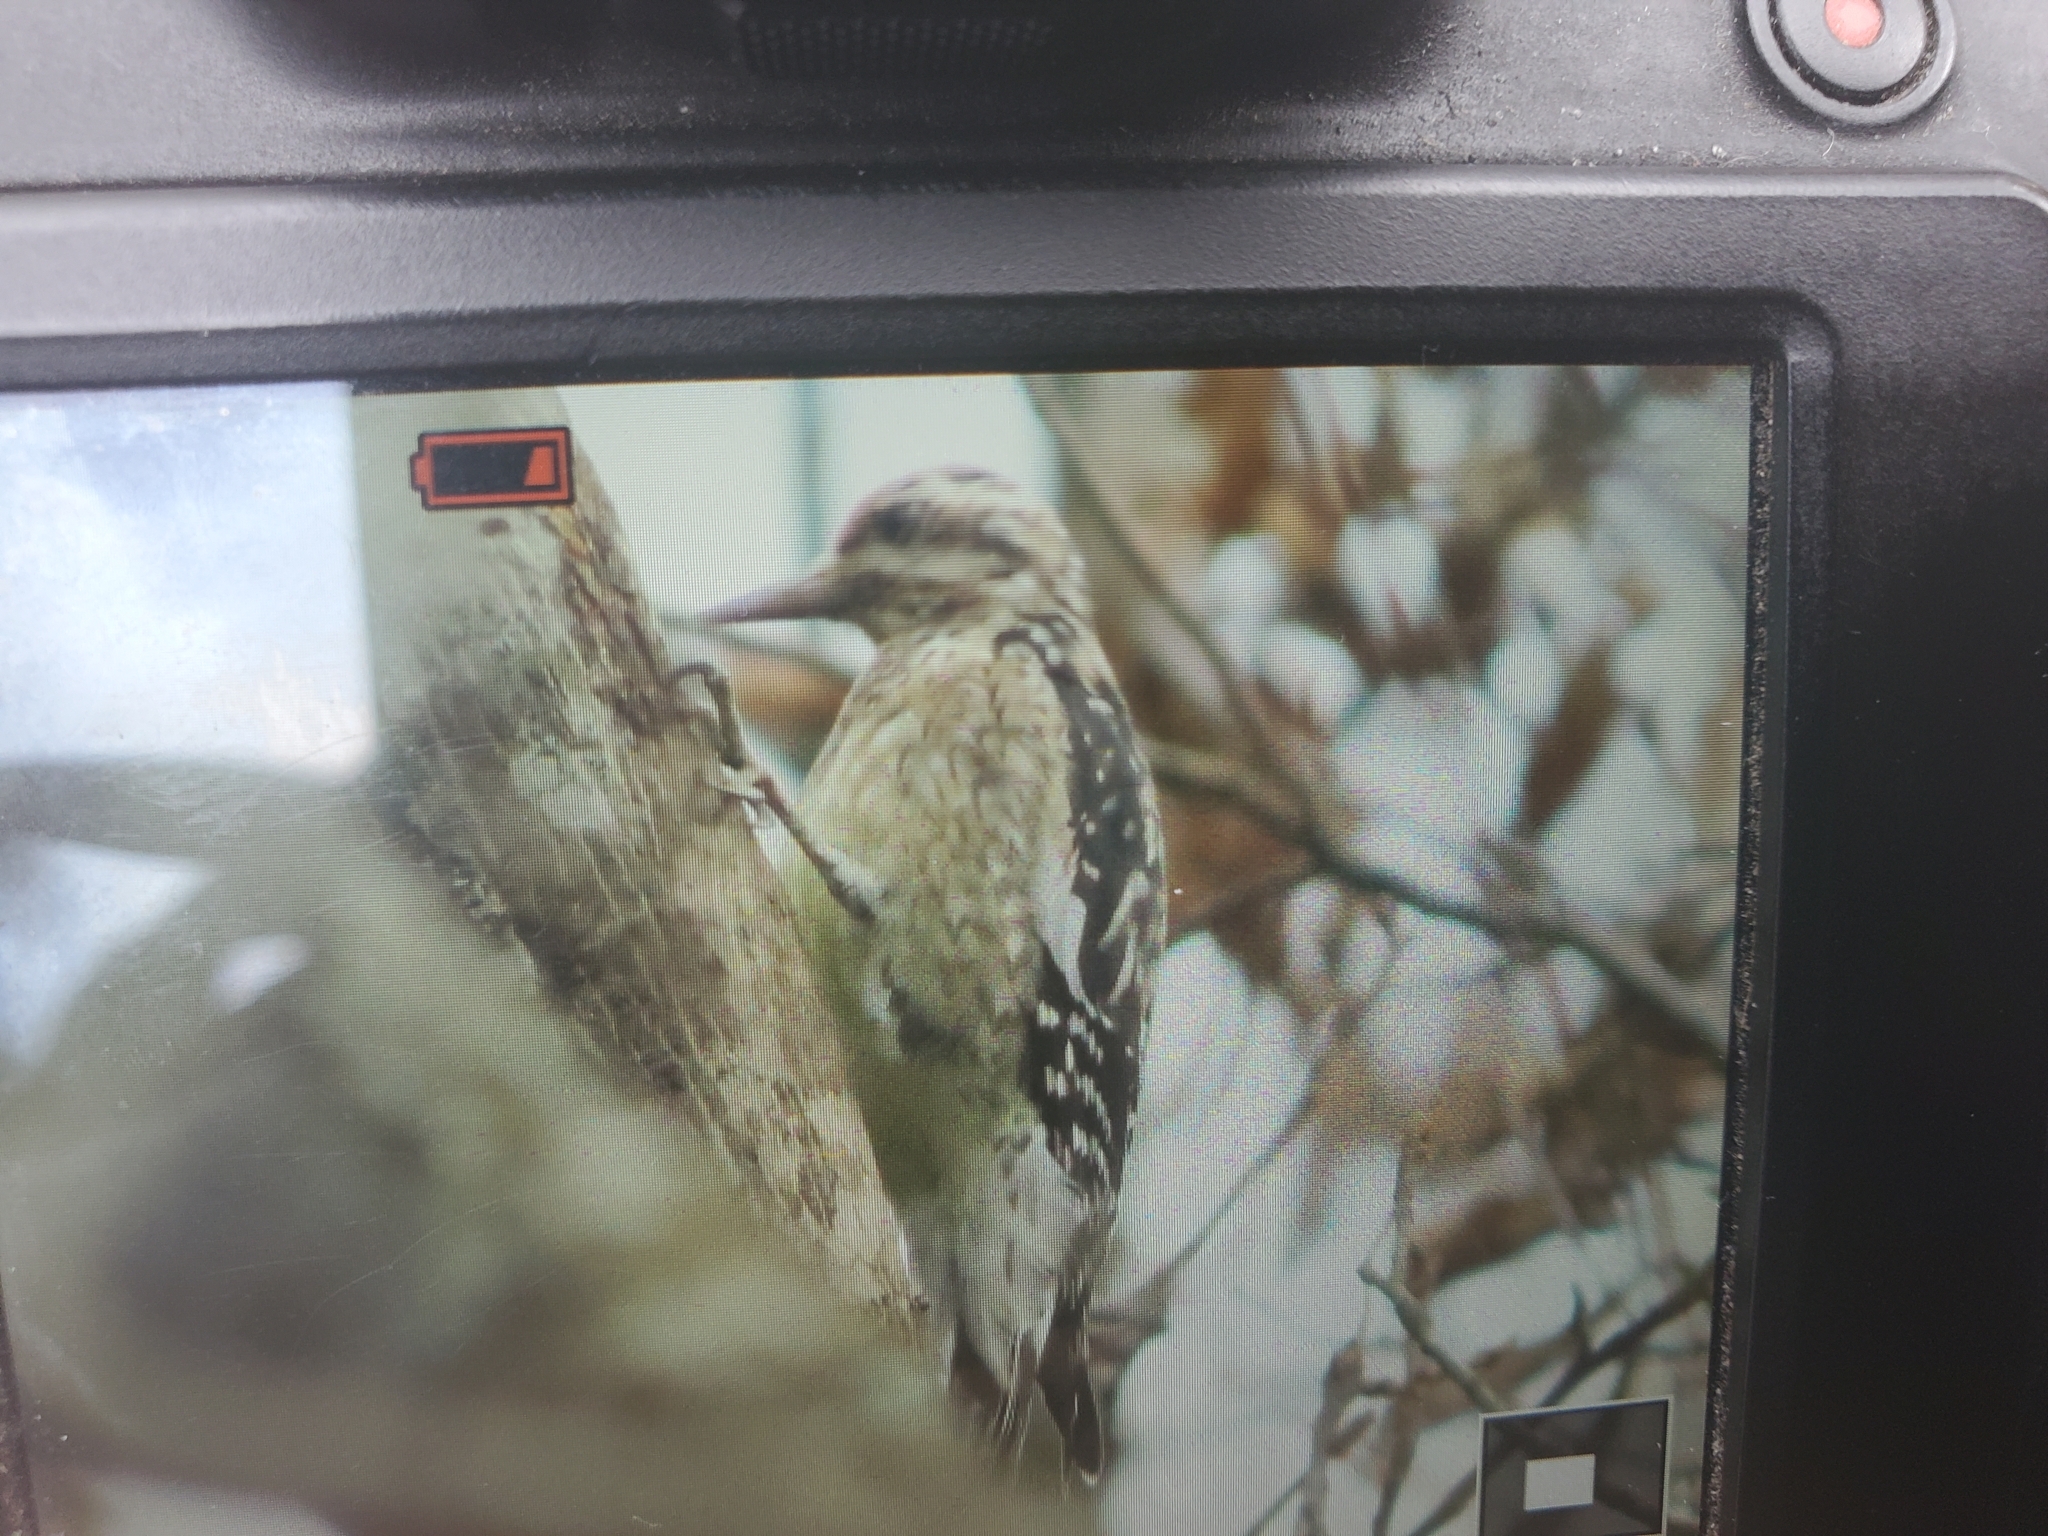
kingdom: Animalia
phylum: Chordata
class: Aves
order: Piciformes
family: Picidae
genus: Sphyrapicus
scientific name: Sphyrapicus varius
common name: Yellow-bellied sapsucker
